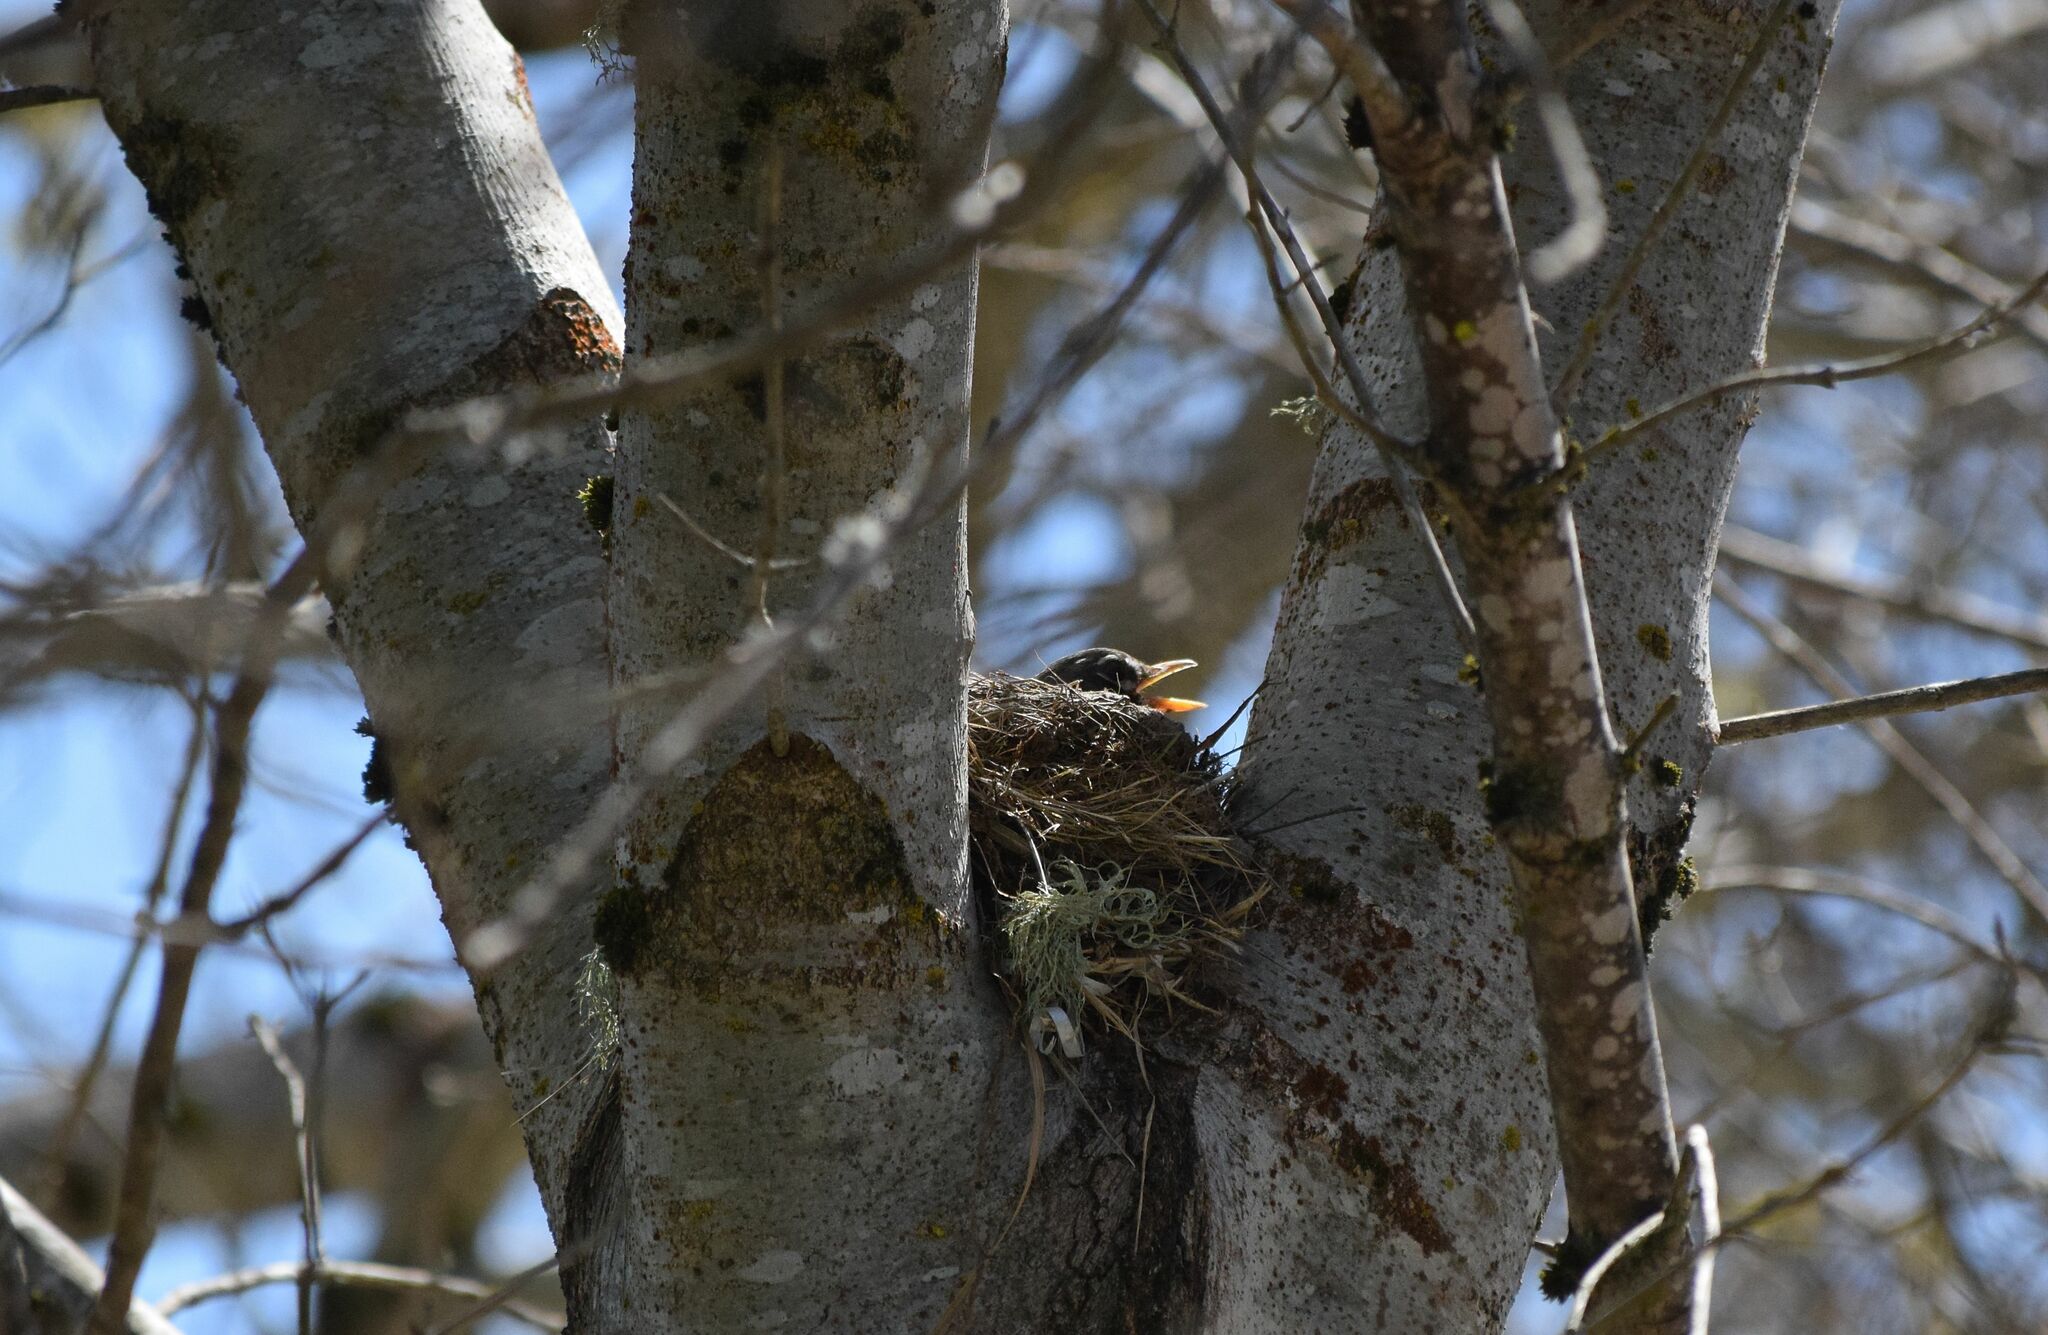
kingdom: Animalia
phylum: Chordata
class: Aves
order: Passeriformes
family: Turdidae
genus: Turdus
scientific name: Turdus migratorius
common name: American robin
